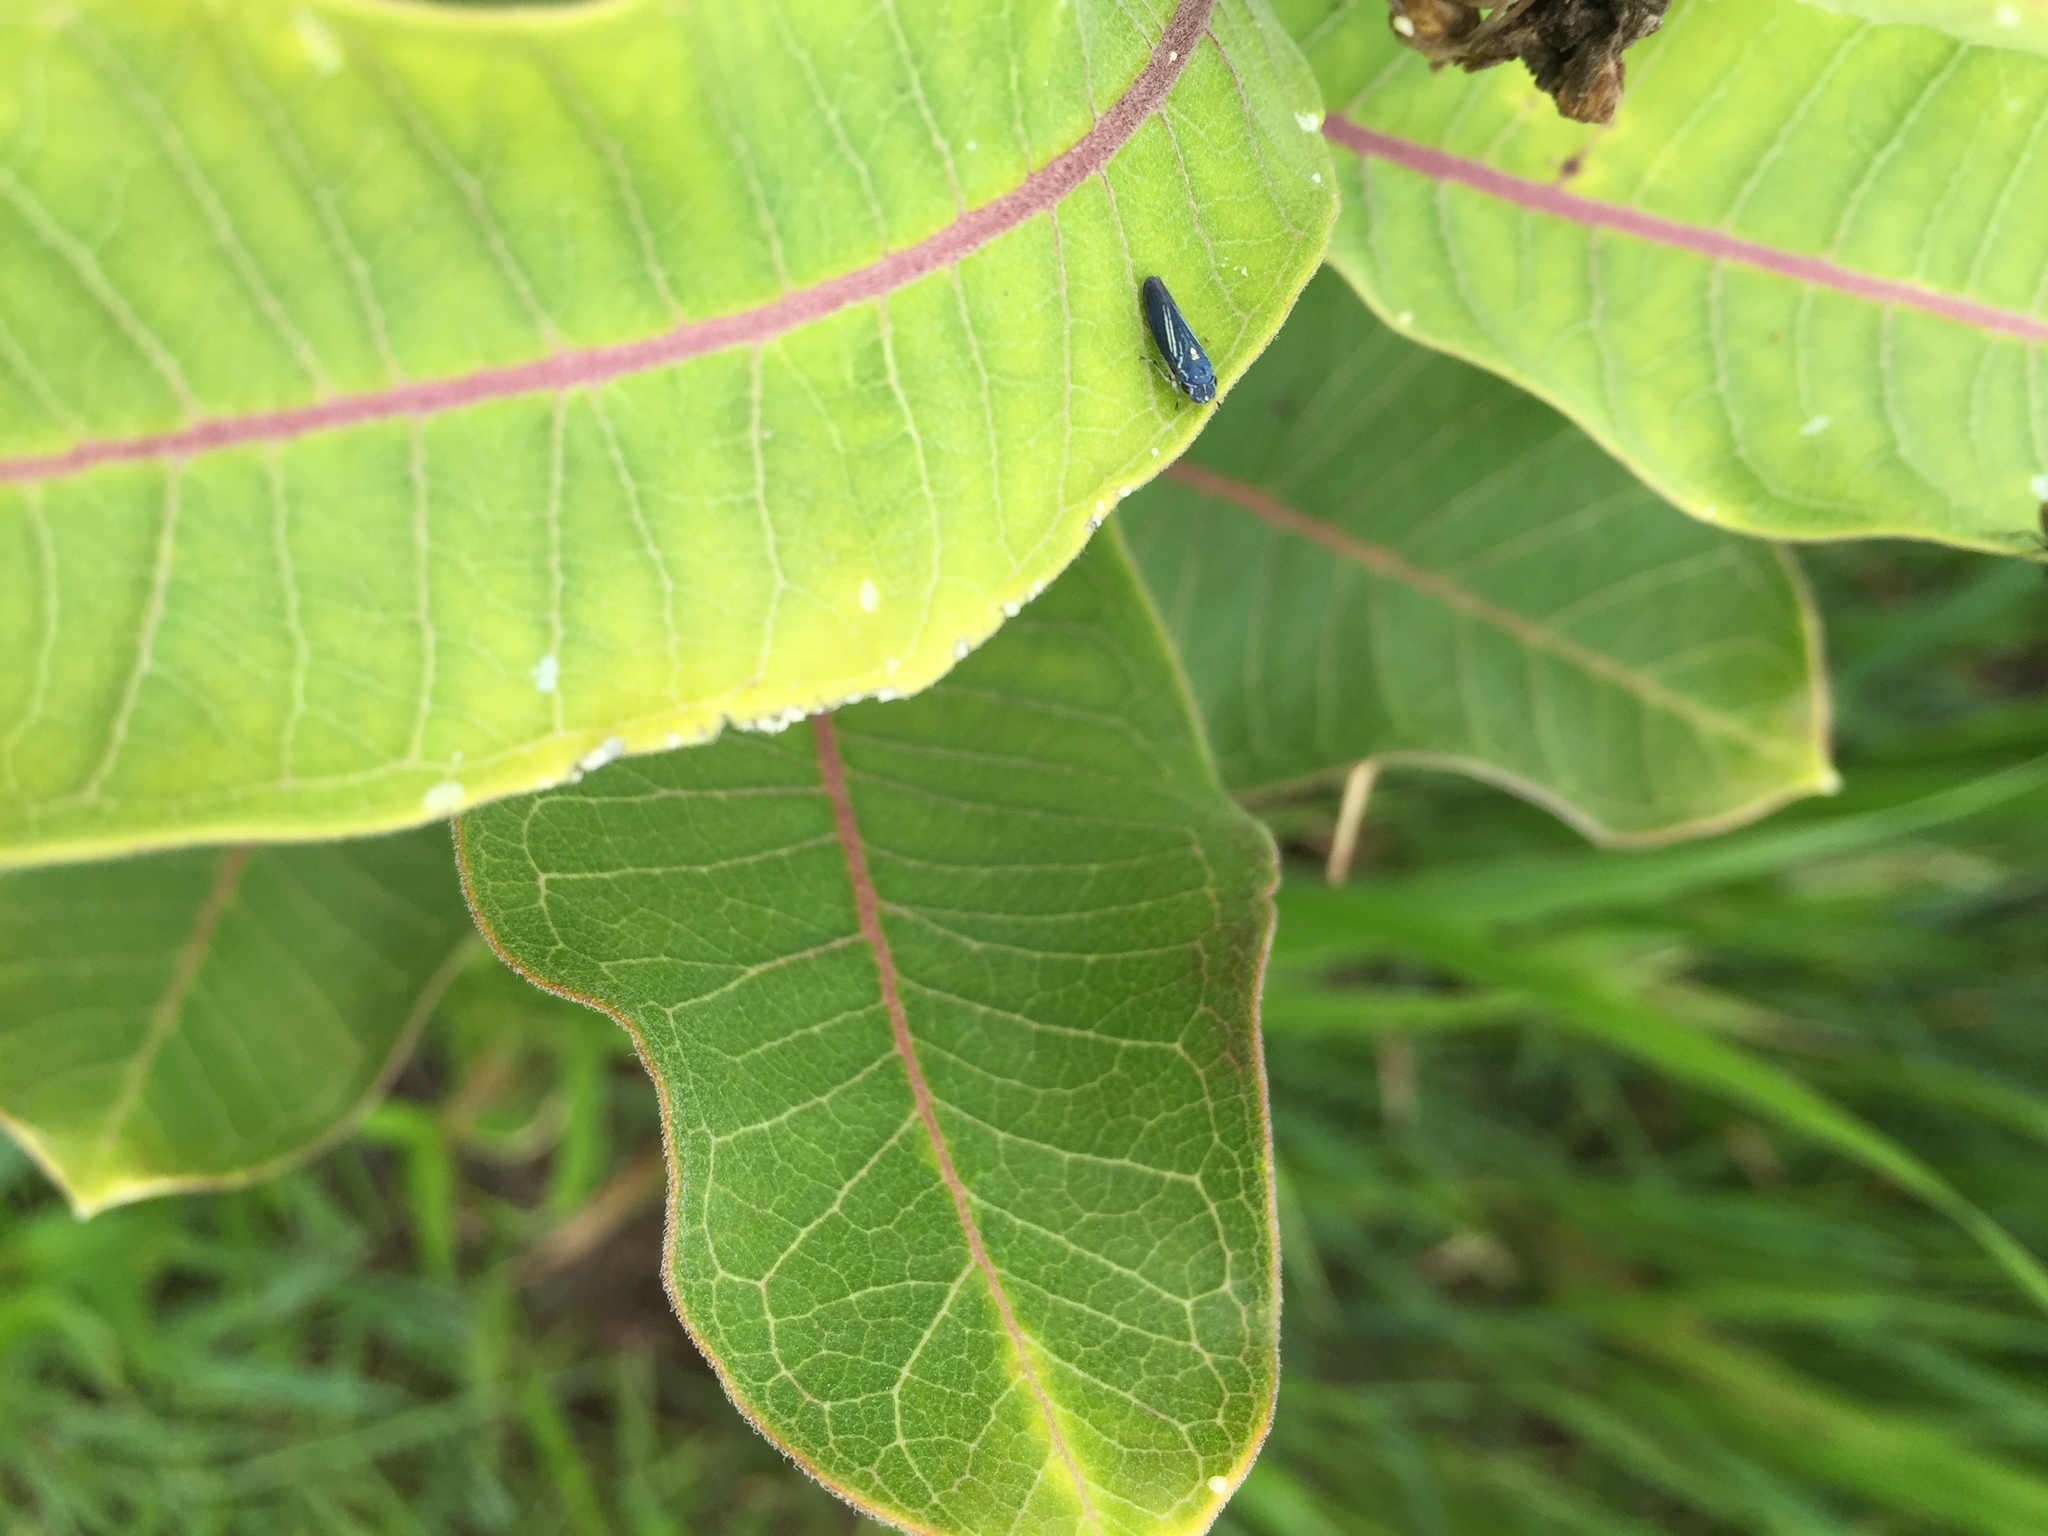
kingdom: Animalia
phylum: Arthropoda
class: Insecta
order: Hemiptera
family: Cicadellidae
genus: Neokolla
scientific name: Neokolla hieroglyphica
